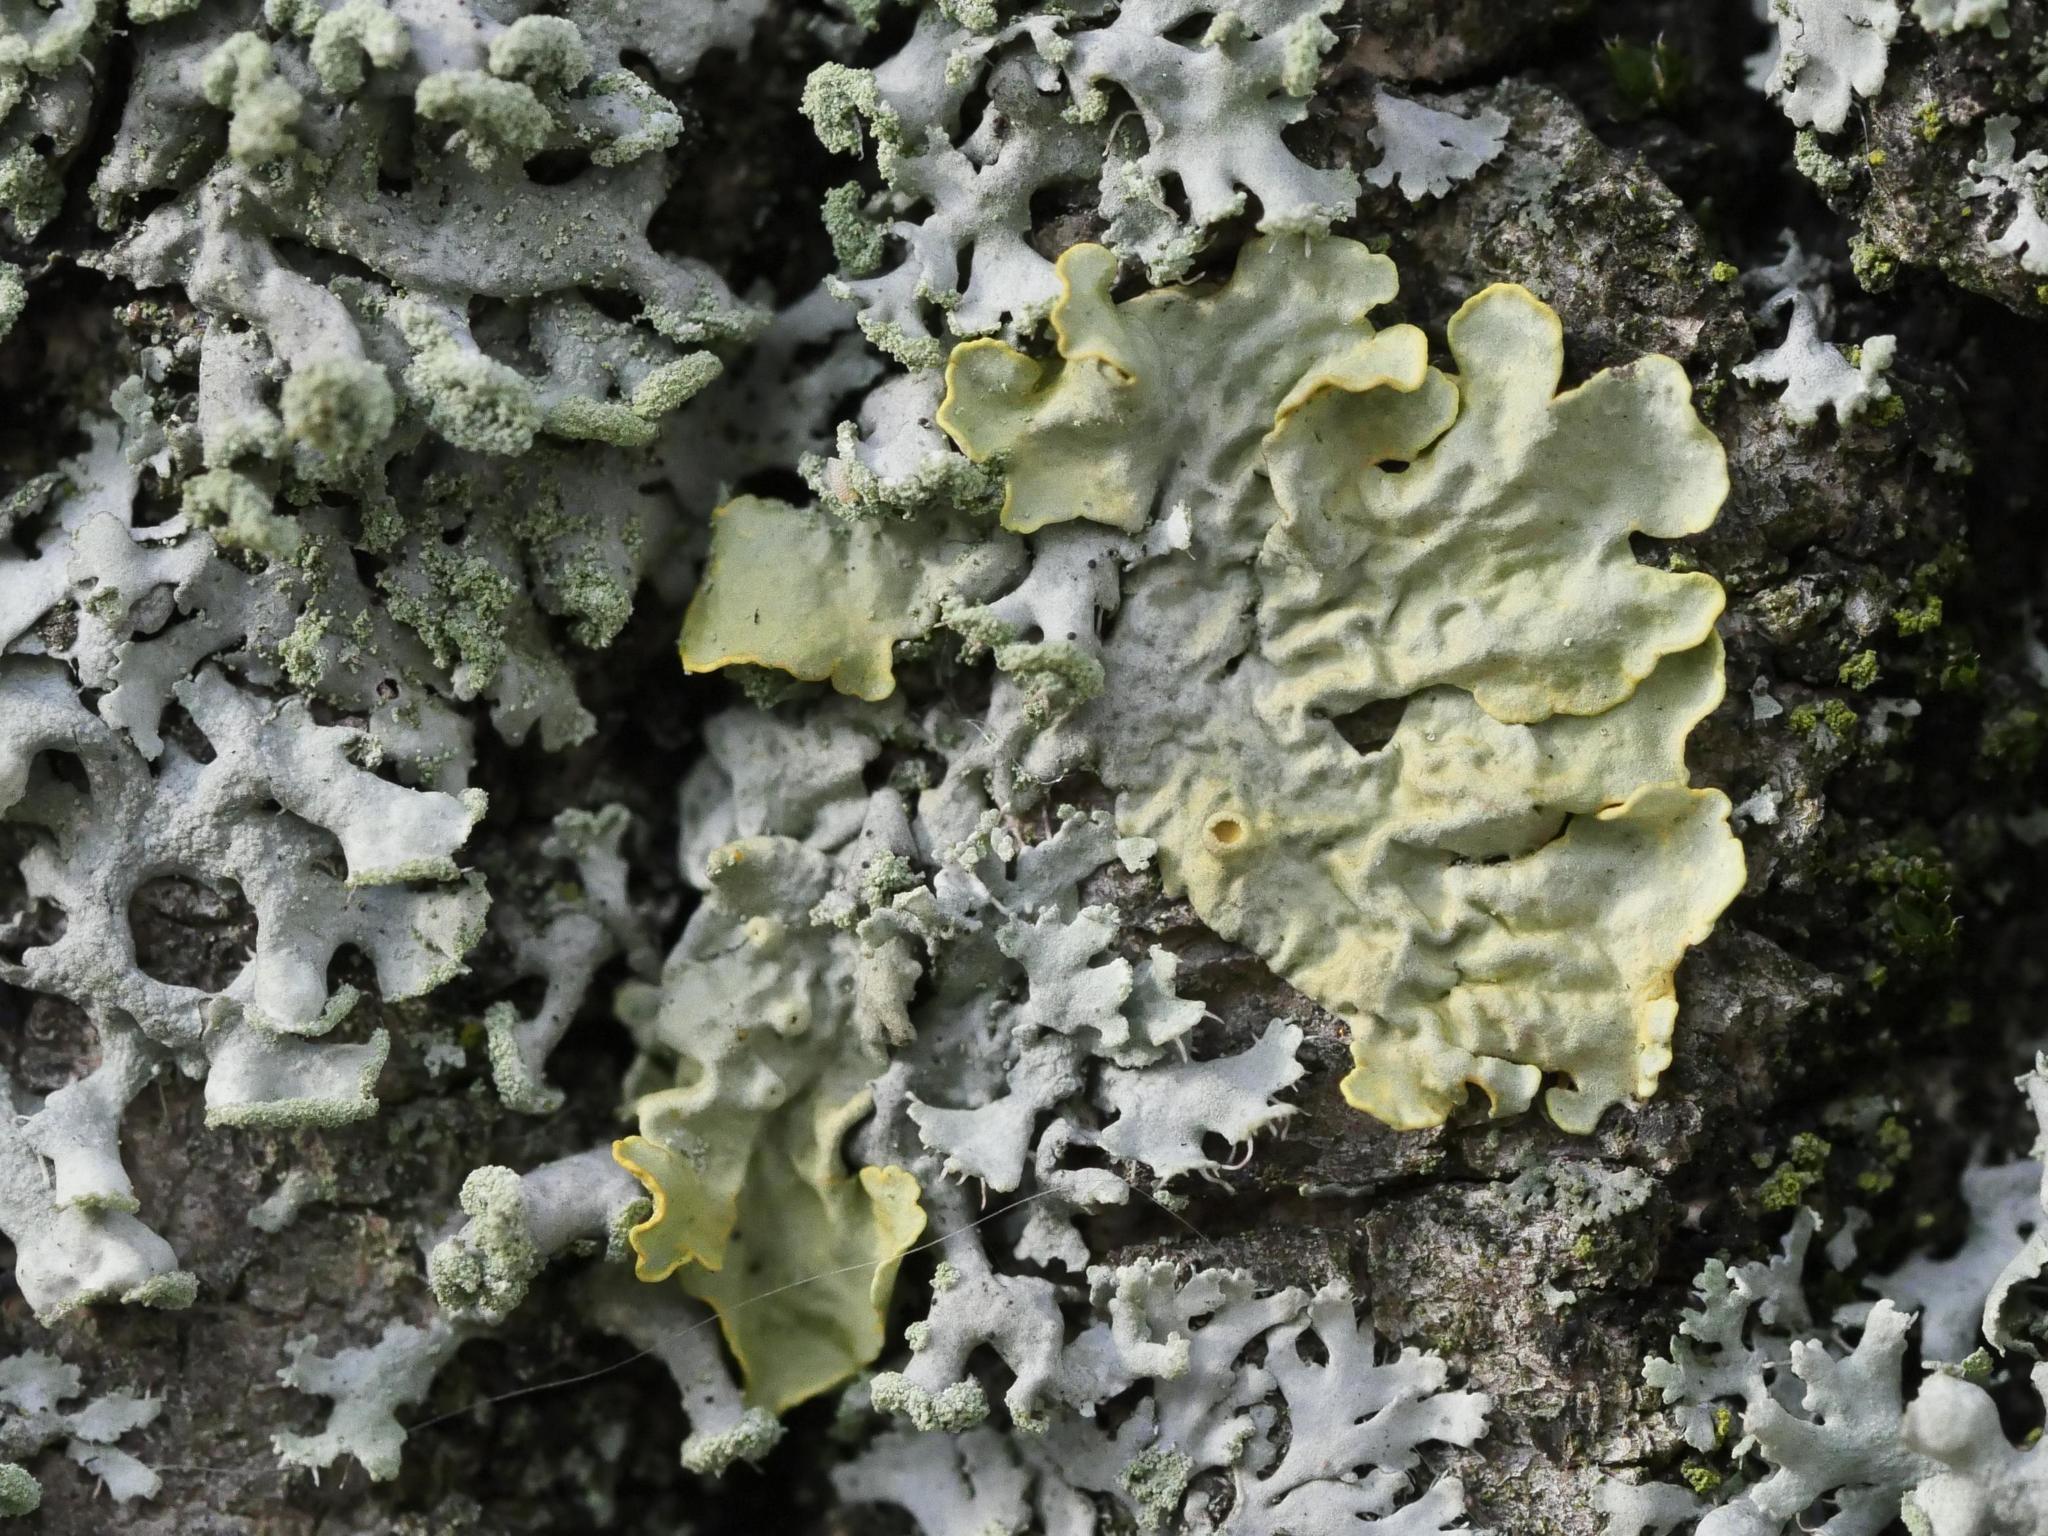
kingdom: Fungi
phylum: Ascomycota
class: Lecanoromycetes
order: Teloschistales
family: Teloschistaceae
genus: Xanthoria
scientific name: Xanthoria parietina
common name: Common orange lichen
